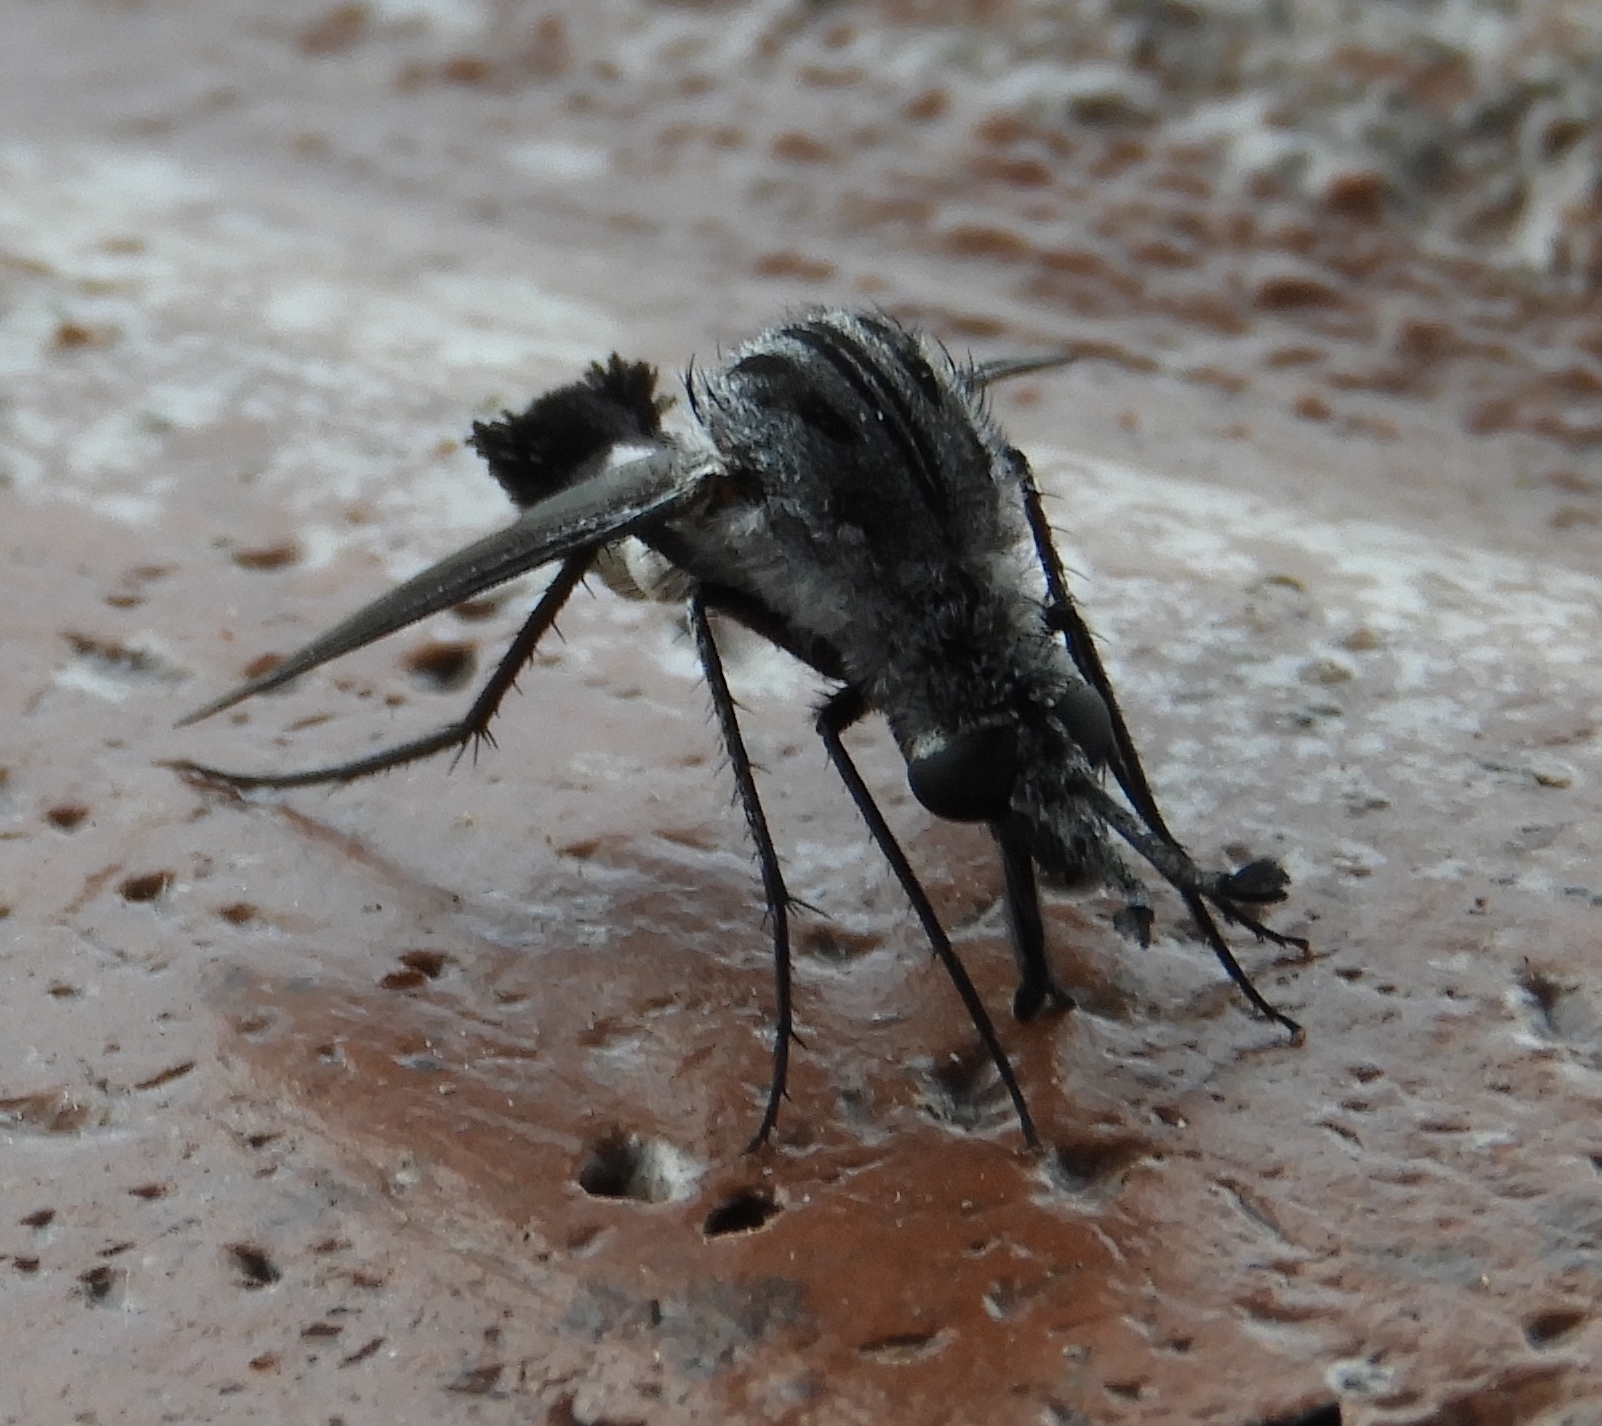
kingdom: Animalia
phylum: Arthropoda
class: Insecta
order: Diptera
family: Bombyliidae
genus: Lepidophora
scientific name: Lepidophora vetusta
